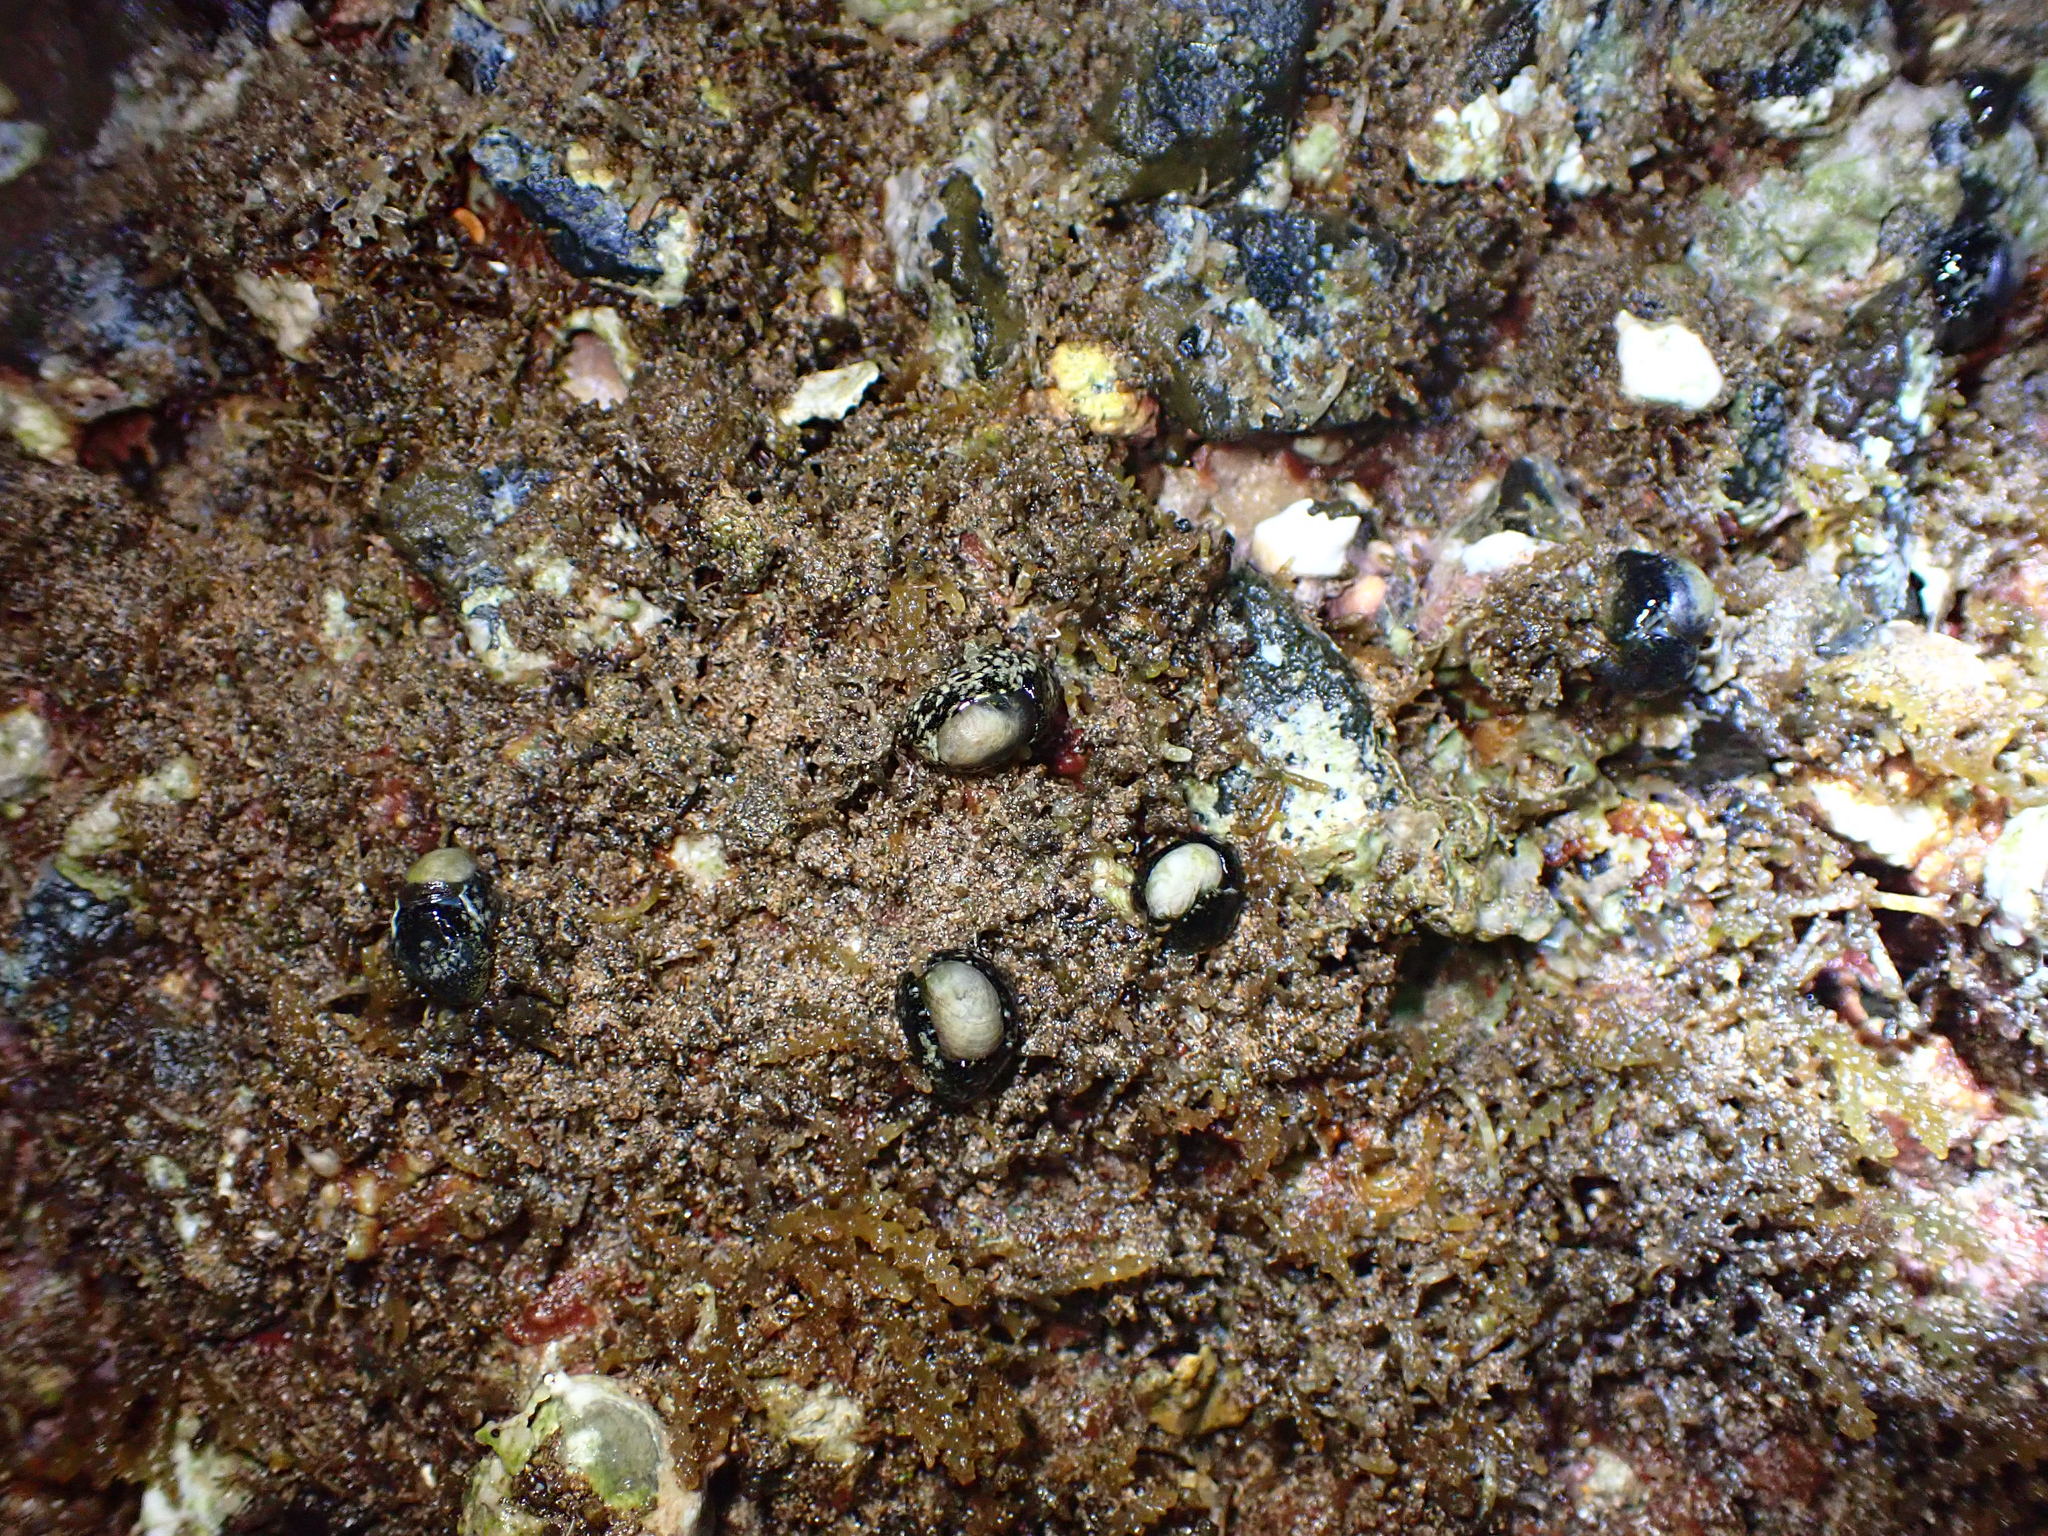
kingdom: Animalia
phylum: Mollusca
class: Gastropoda
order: Cephalaspidea
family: Haminoeidae
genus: Smaragdinella
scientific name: Smaragdinella calyculata
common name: Emerald bubble
